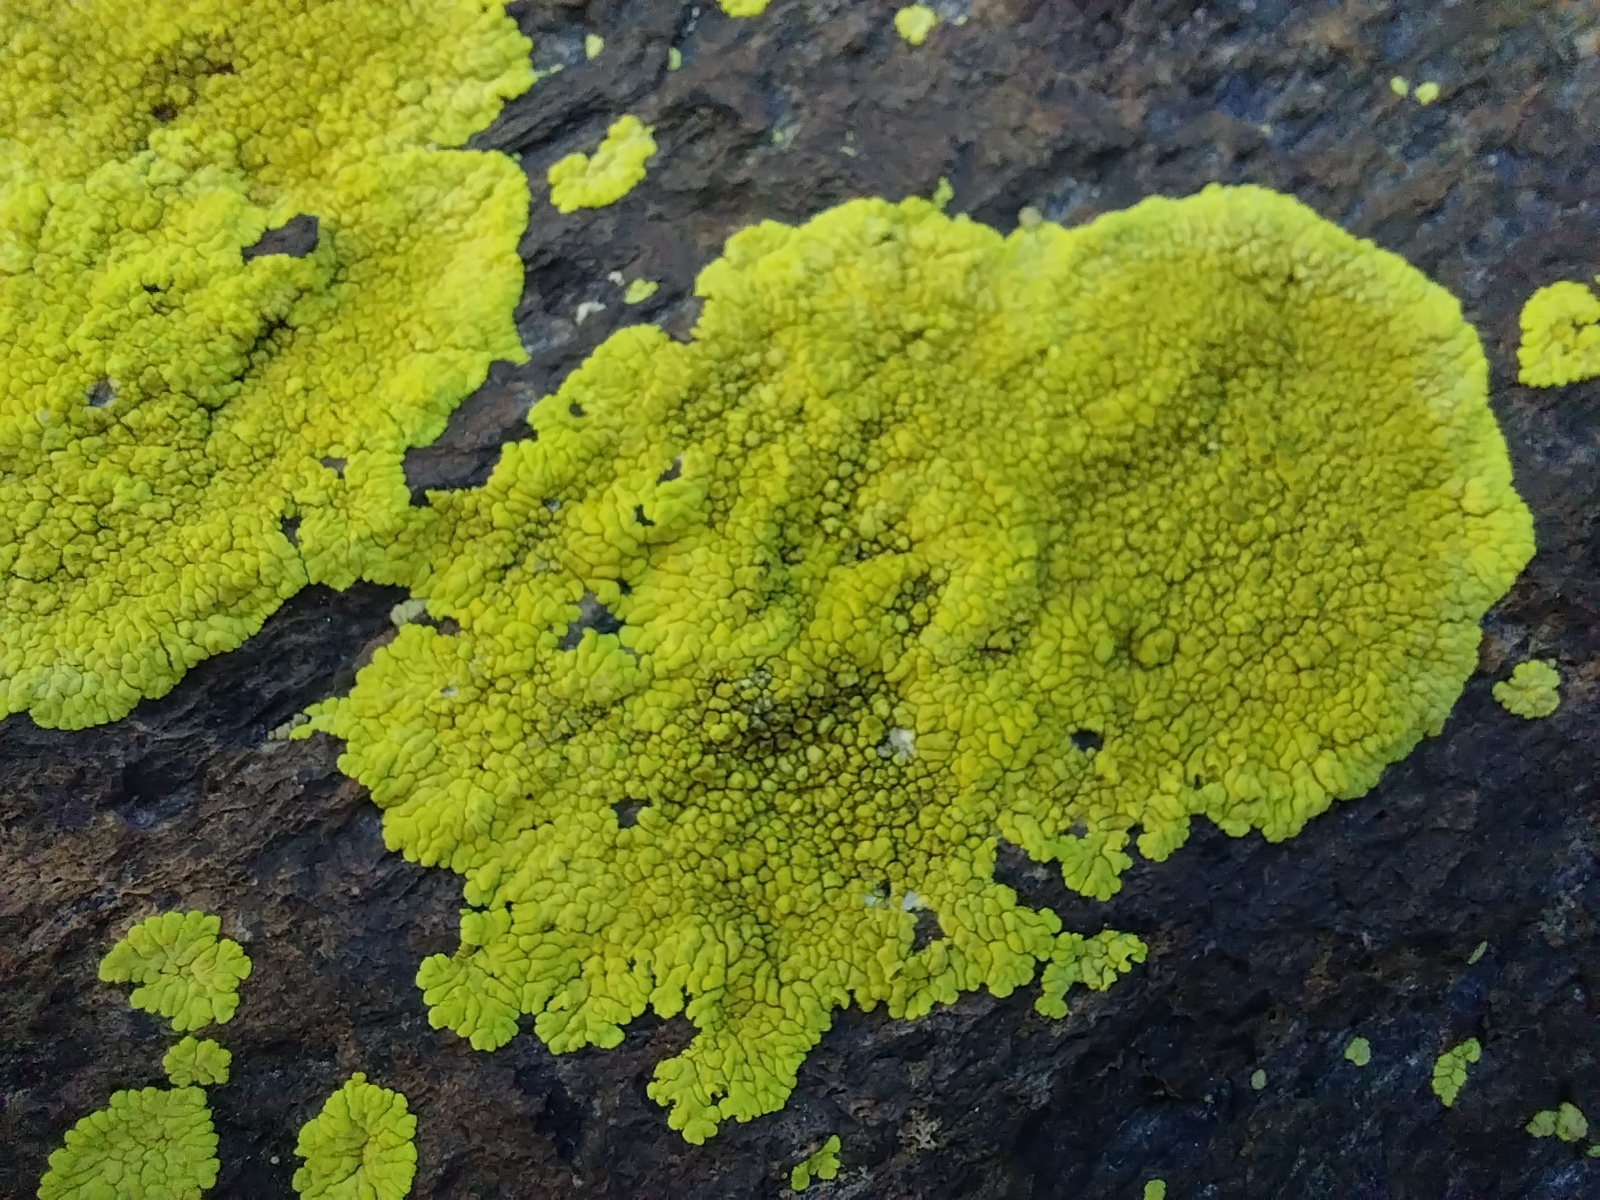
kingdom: Fungi
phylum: Ascomycota
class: Lecanoromycetes
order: Acarosporales
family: Acarosporaceae
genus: Pleopsidium
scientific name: Pleopsidium oxytonum
